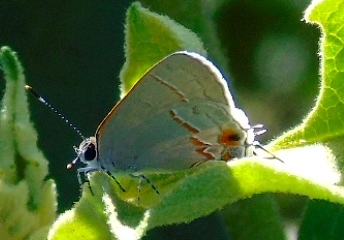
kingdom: Animalia
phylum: Arthropoda
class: Insecta
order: Lepidoptera
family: Lycaenidae
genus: Electrostrymon
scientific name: Electrostrymon endymion
